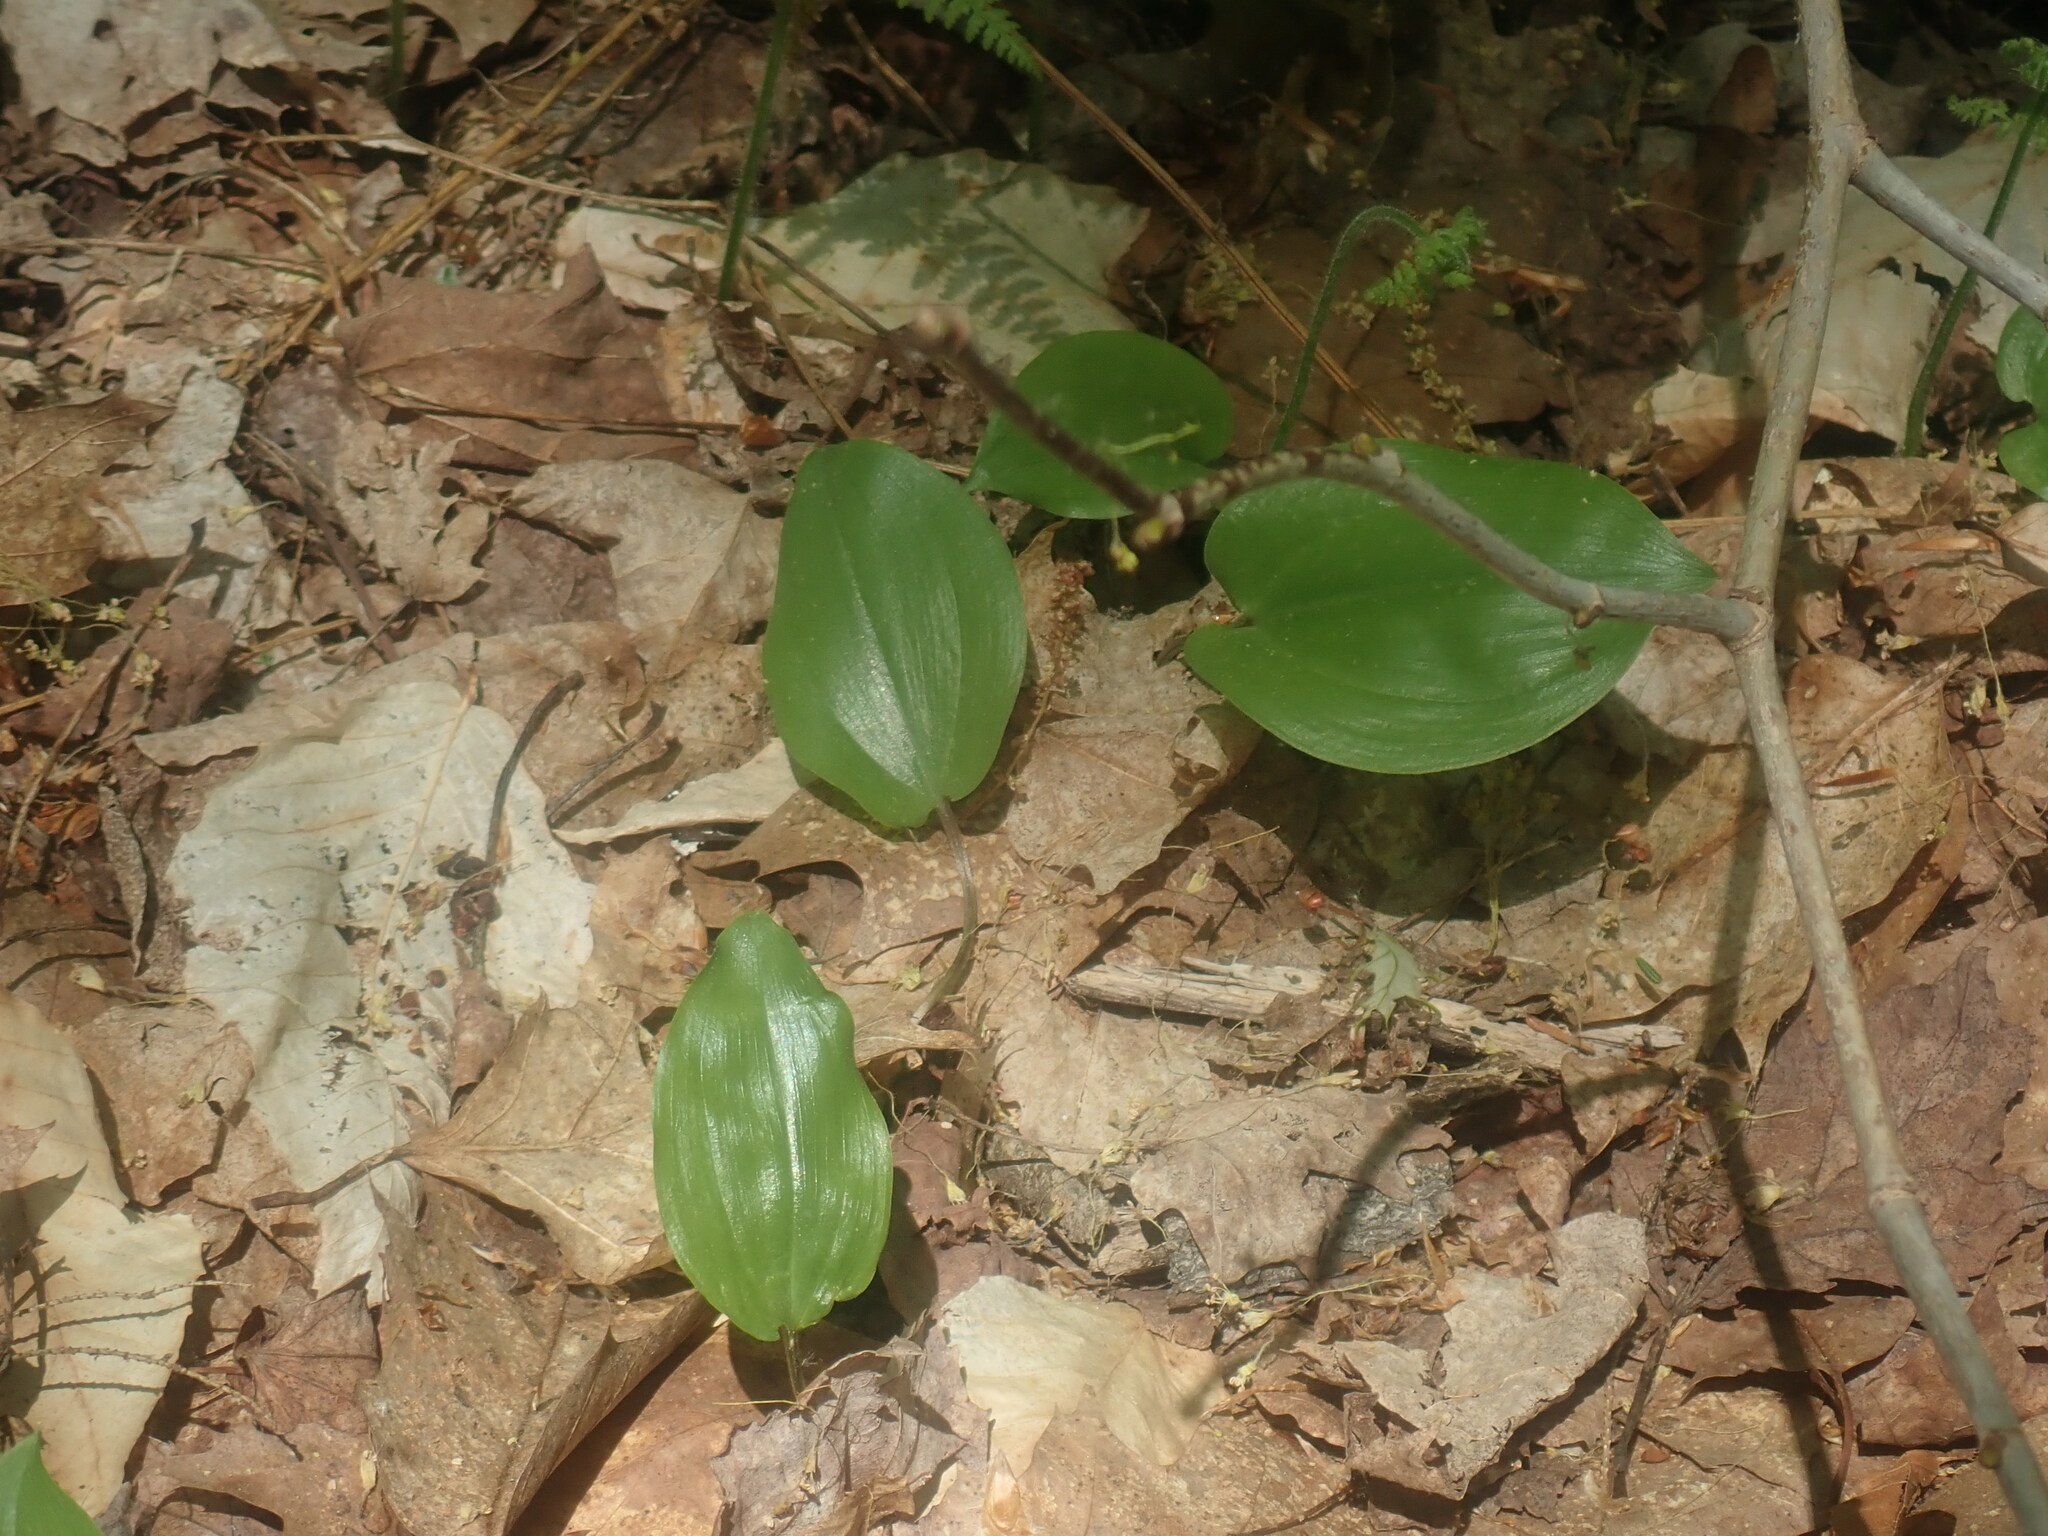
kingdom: Plantae
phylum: Tracheophyta
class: Liliopsida
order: Asparagales
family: Asparagaceae
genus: Maianthemum
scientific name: Maianthemum canadense
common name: False lily-of-the-valley
